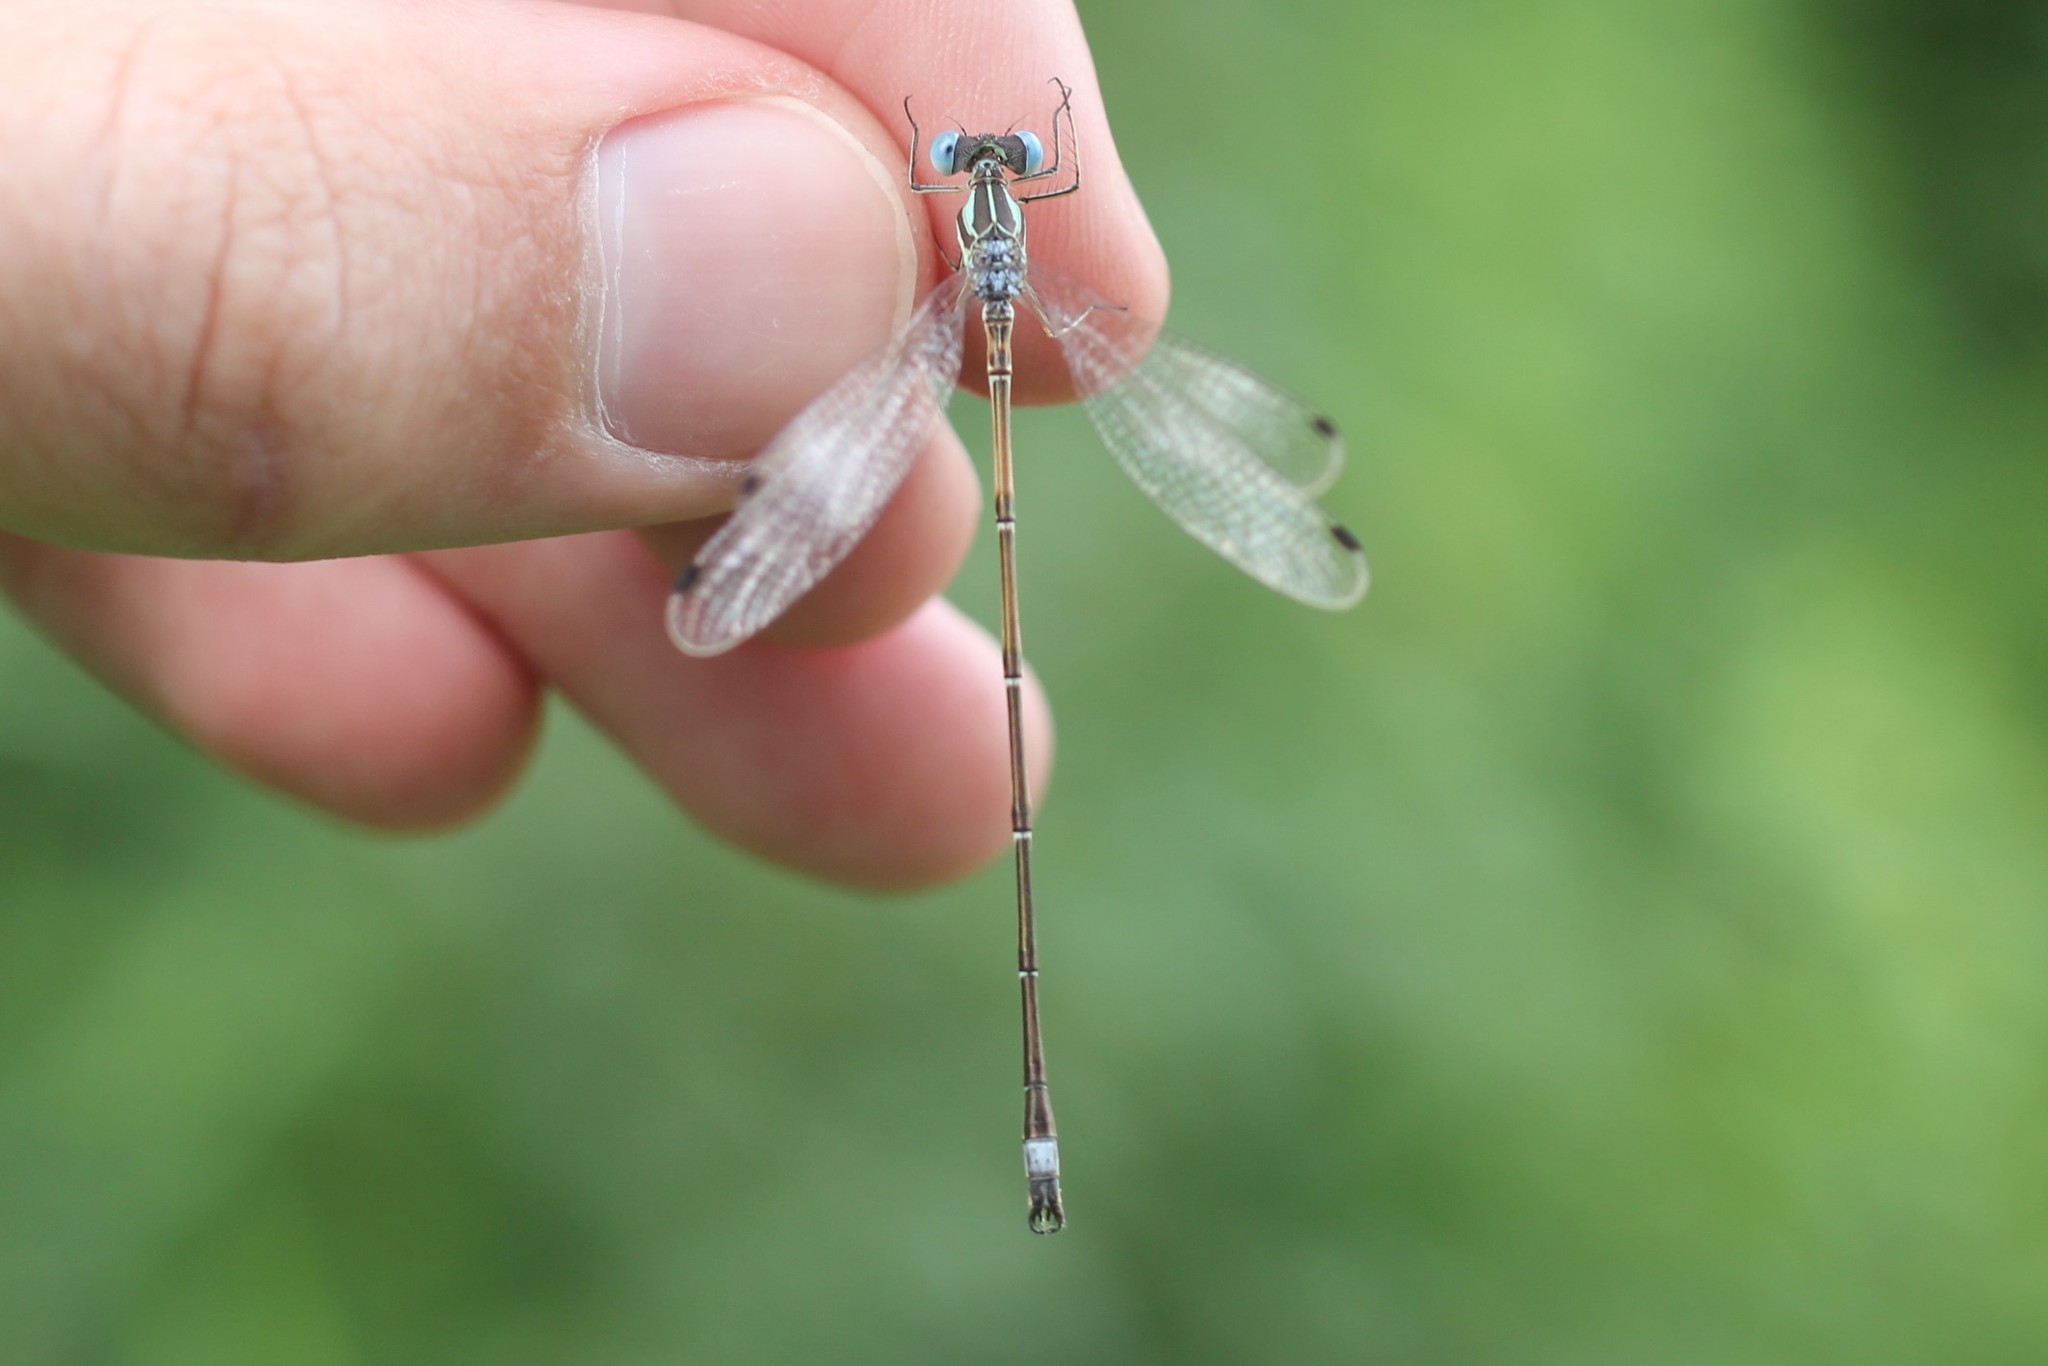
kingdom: Animalia
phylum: Arthropoda
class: Insecta
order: Odonata
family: Lestidae
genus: Lestes
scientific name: Lestes rectangularis
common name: Slender spreadwing
